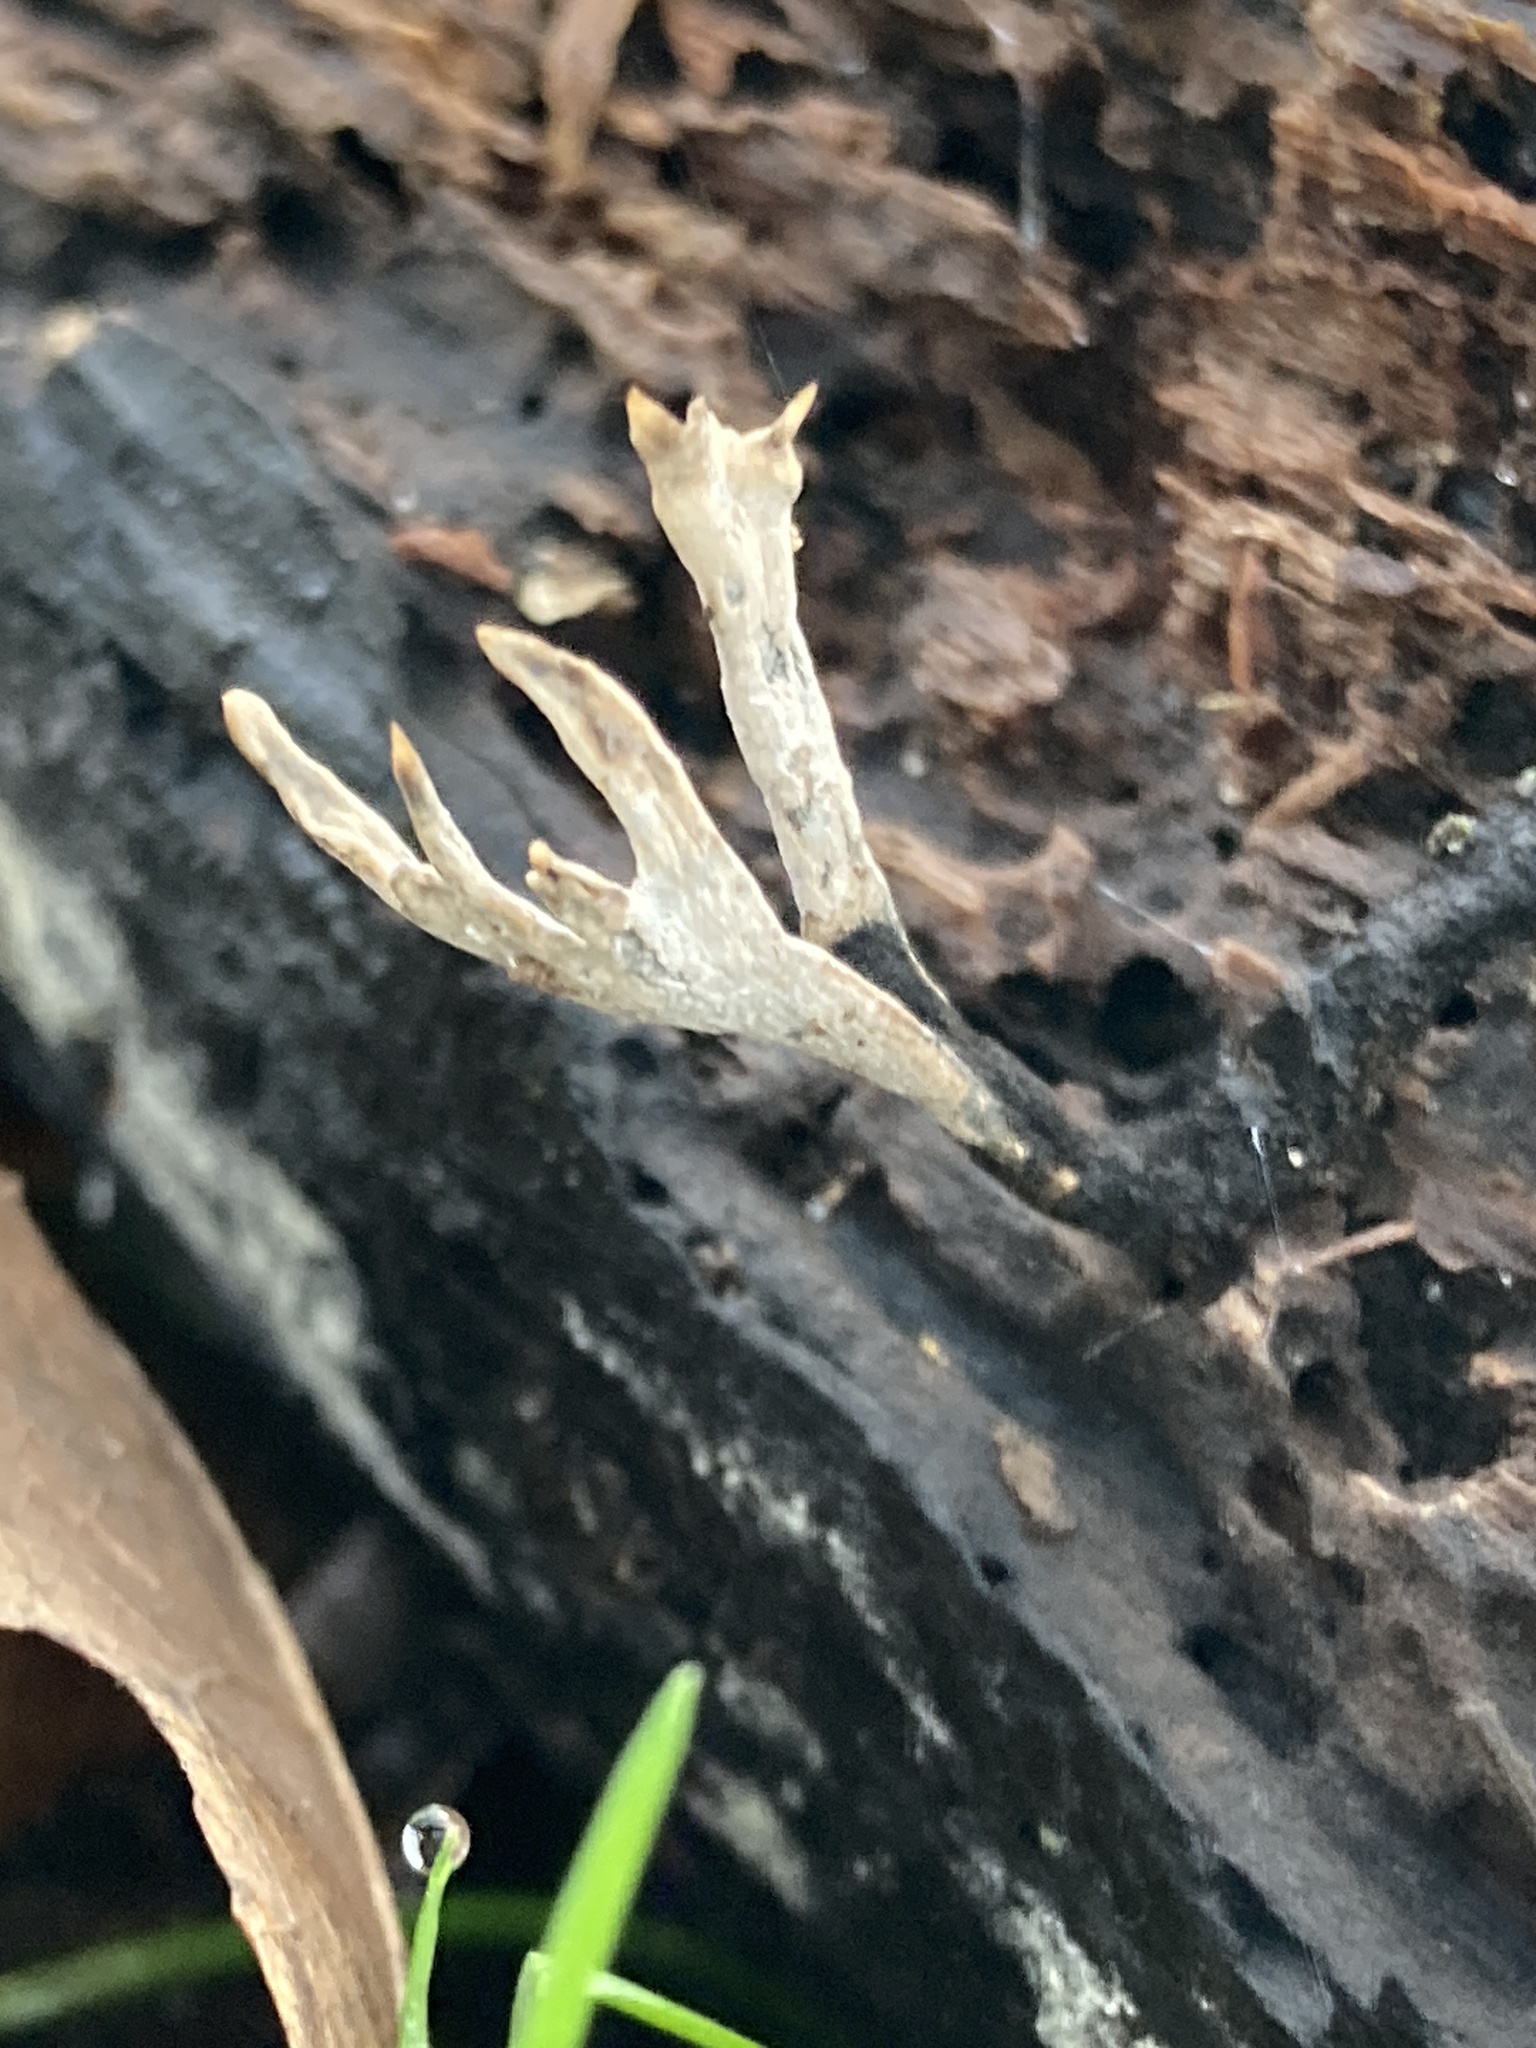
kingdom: Fungi
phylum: Ascomycota
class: Sordariomycetes
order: Xylariales
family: Xylariaceae
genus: Xylaria
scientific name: Xylaria hypoxylon
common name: Candle-snuff fungus
